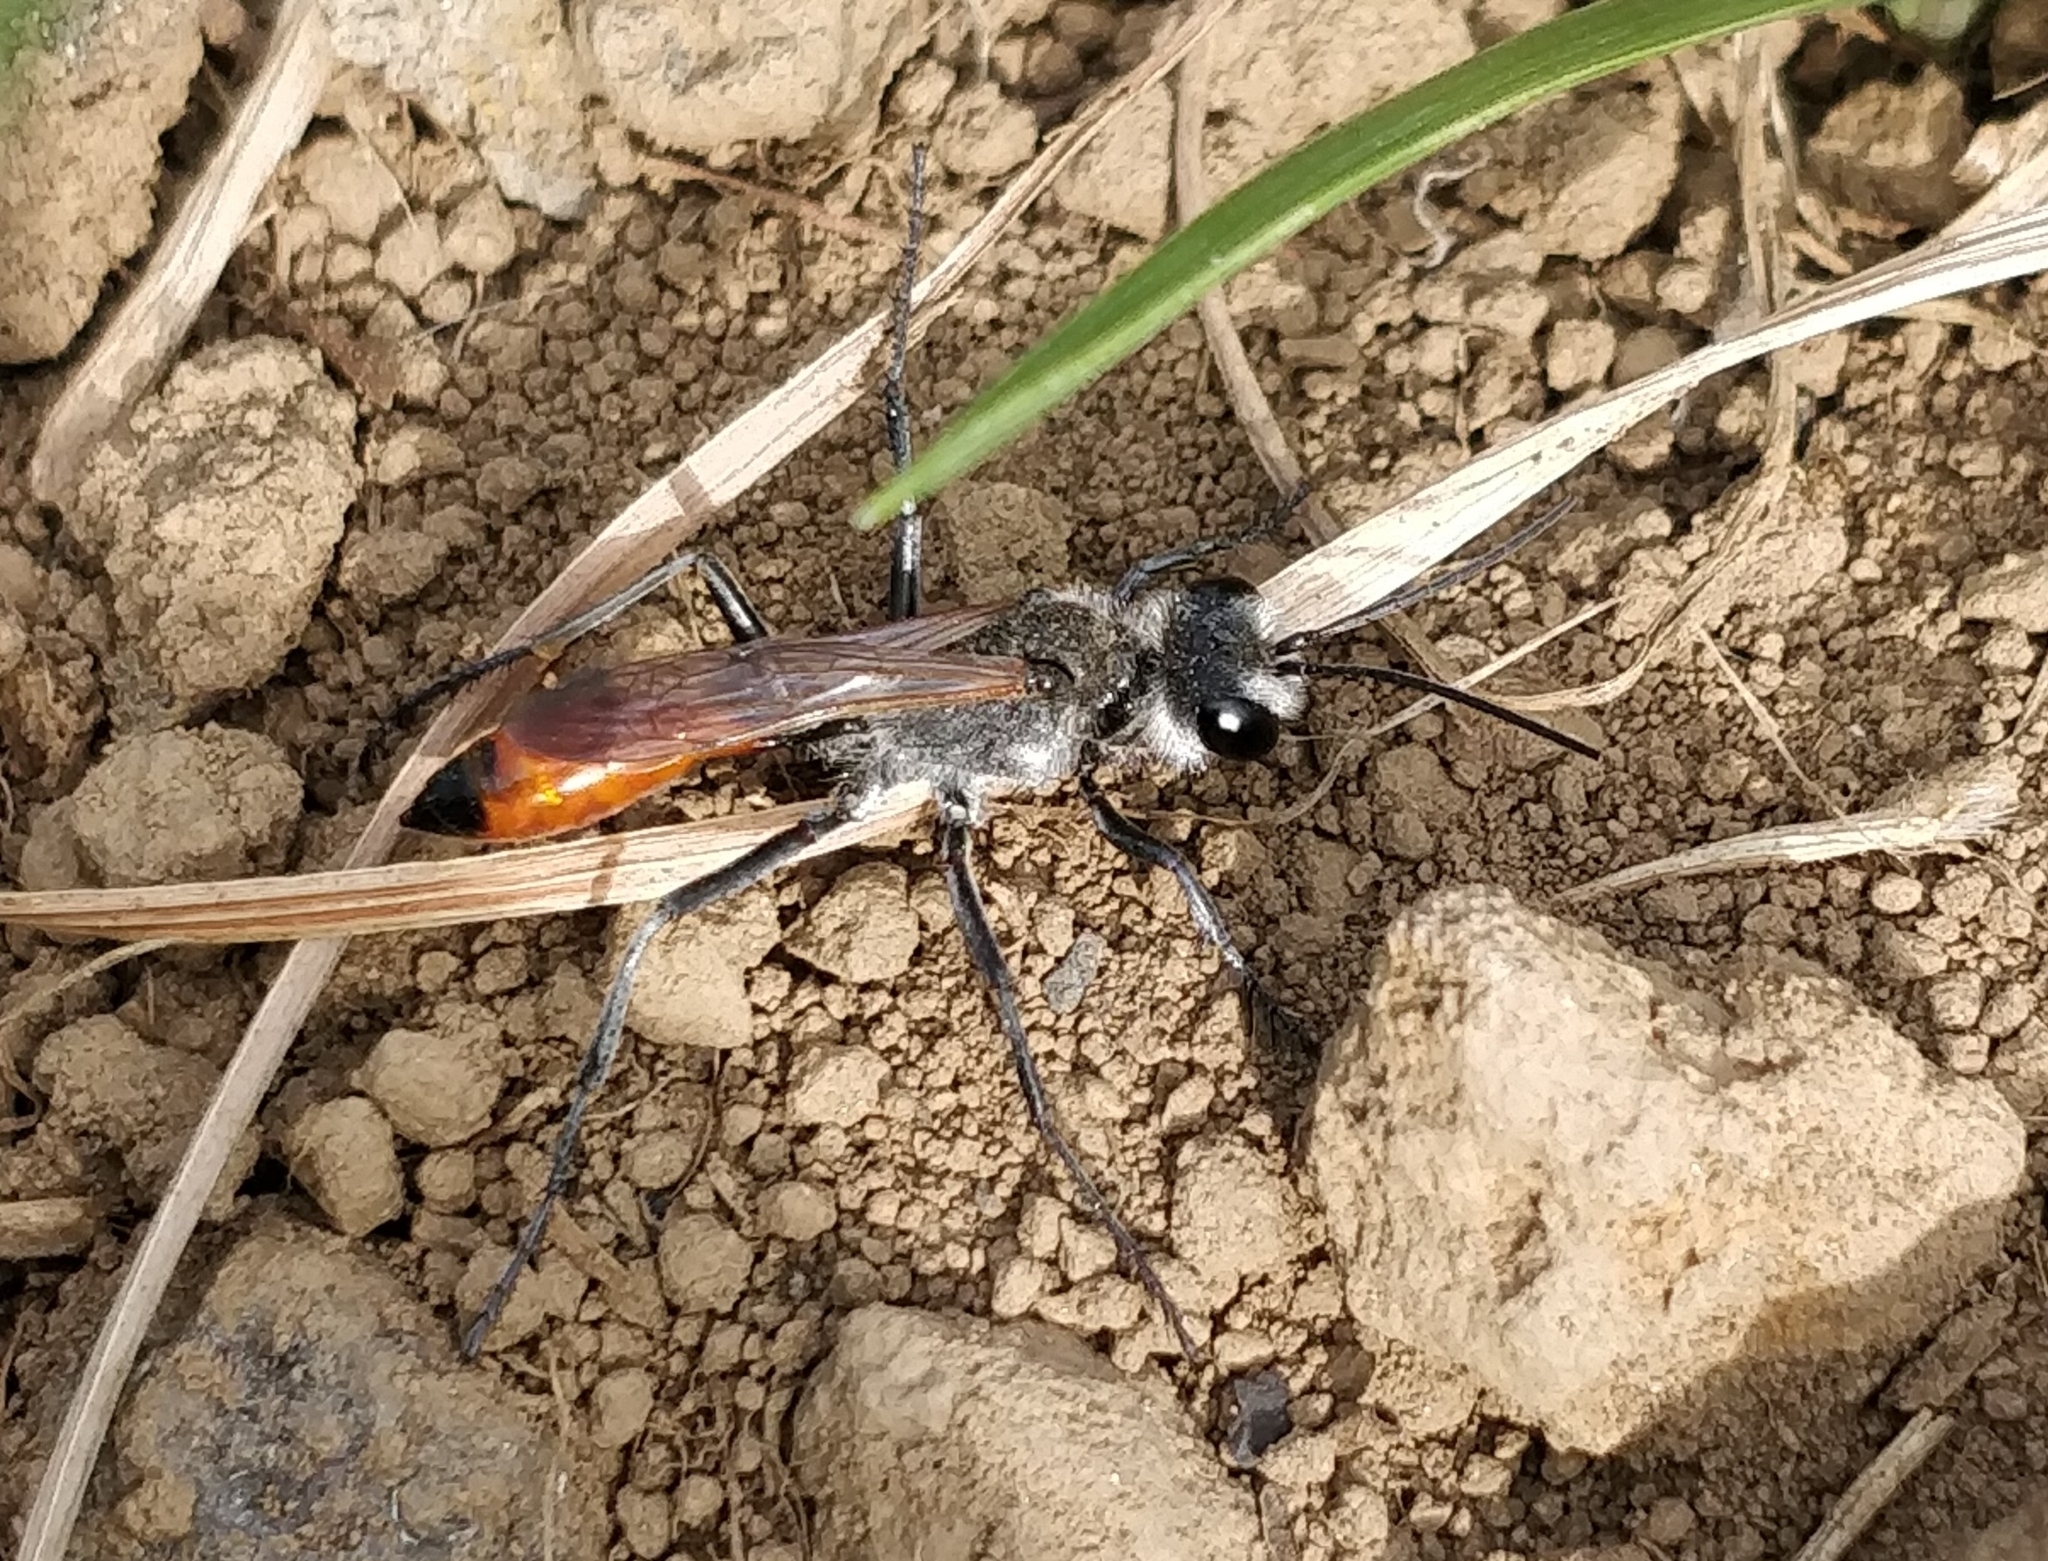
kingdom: Animalia
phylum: Arthropoda
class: Insecta
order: Hymenoptera
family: Sphecidae
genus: Podalonia
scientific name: Podalonia tydei
